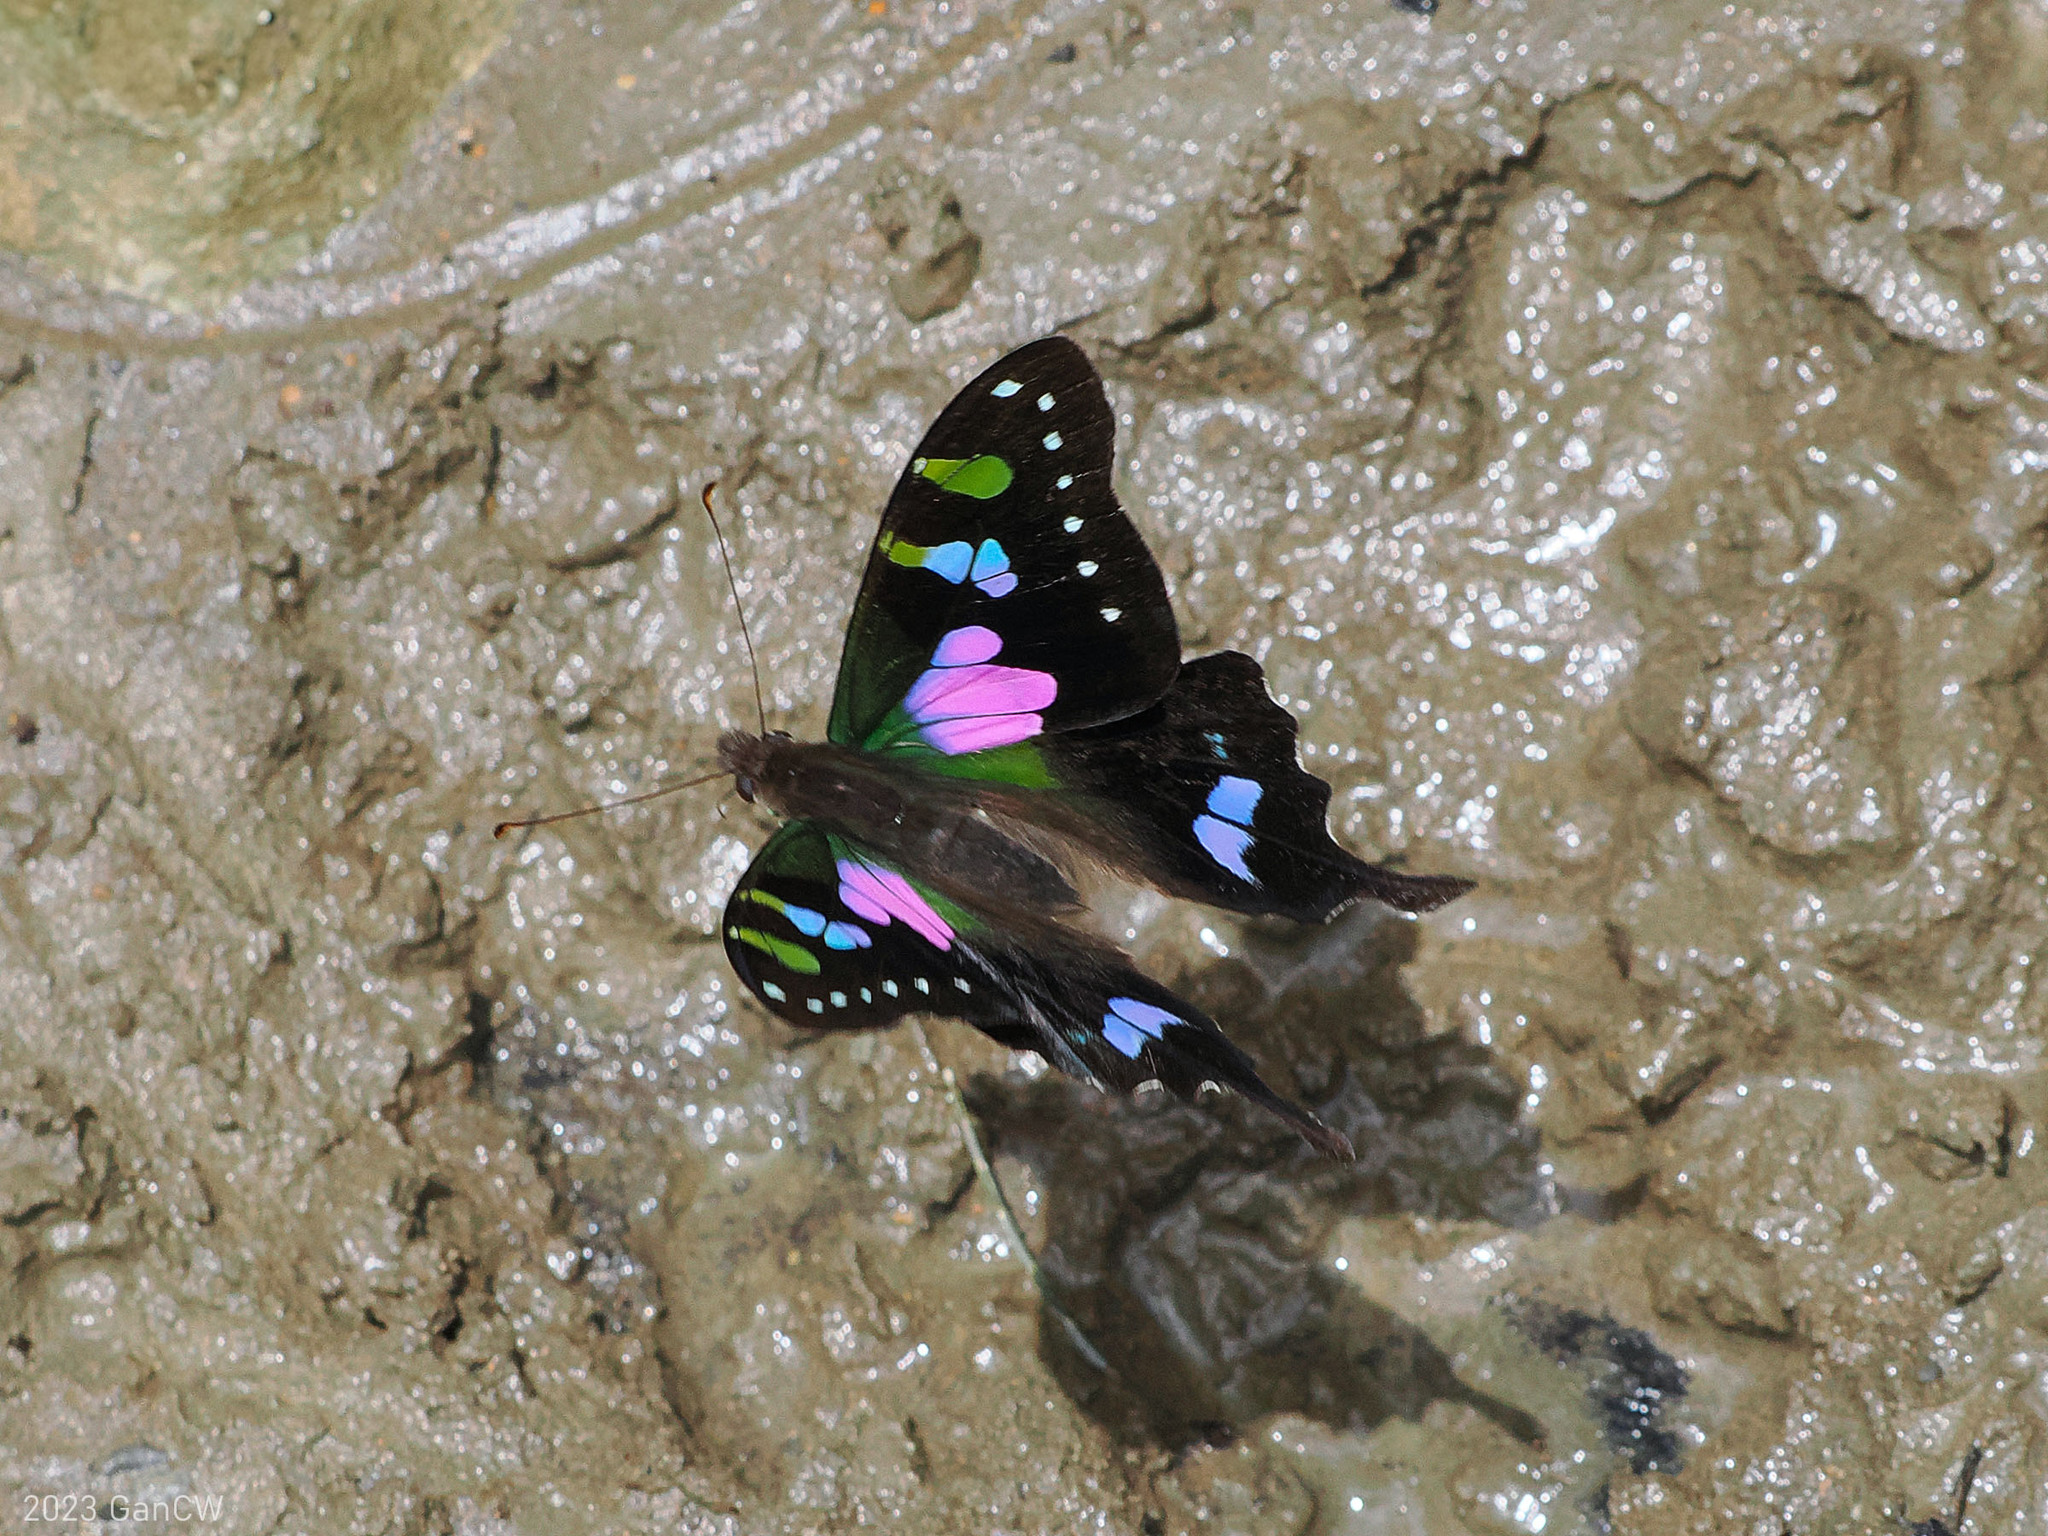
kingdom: Animalia
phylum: Arthropoda
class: Insecta
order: Lepidoptera
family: Papilionidae
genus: Graphium
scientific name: Graphium weiskei
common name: Purple spotted swallowtail
